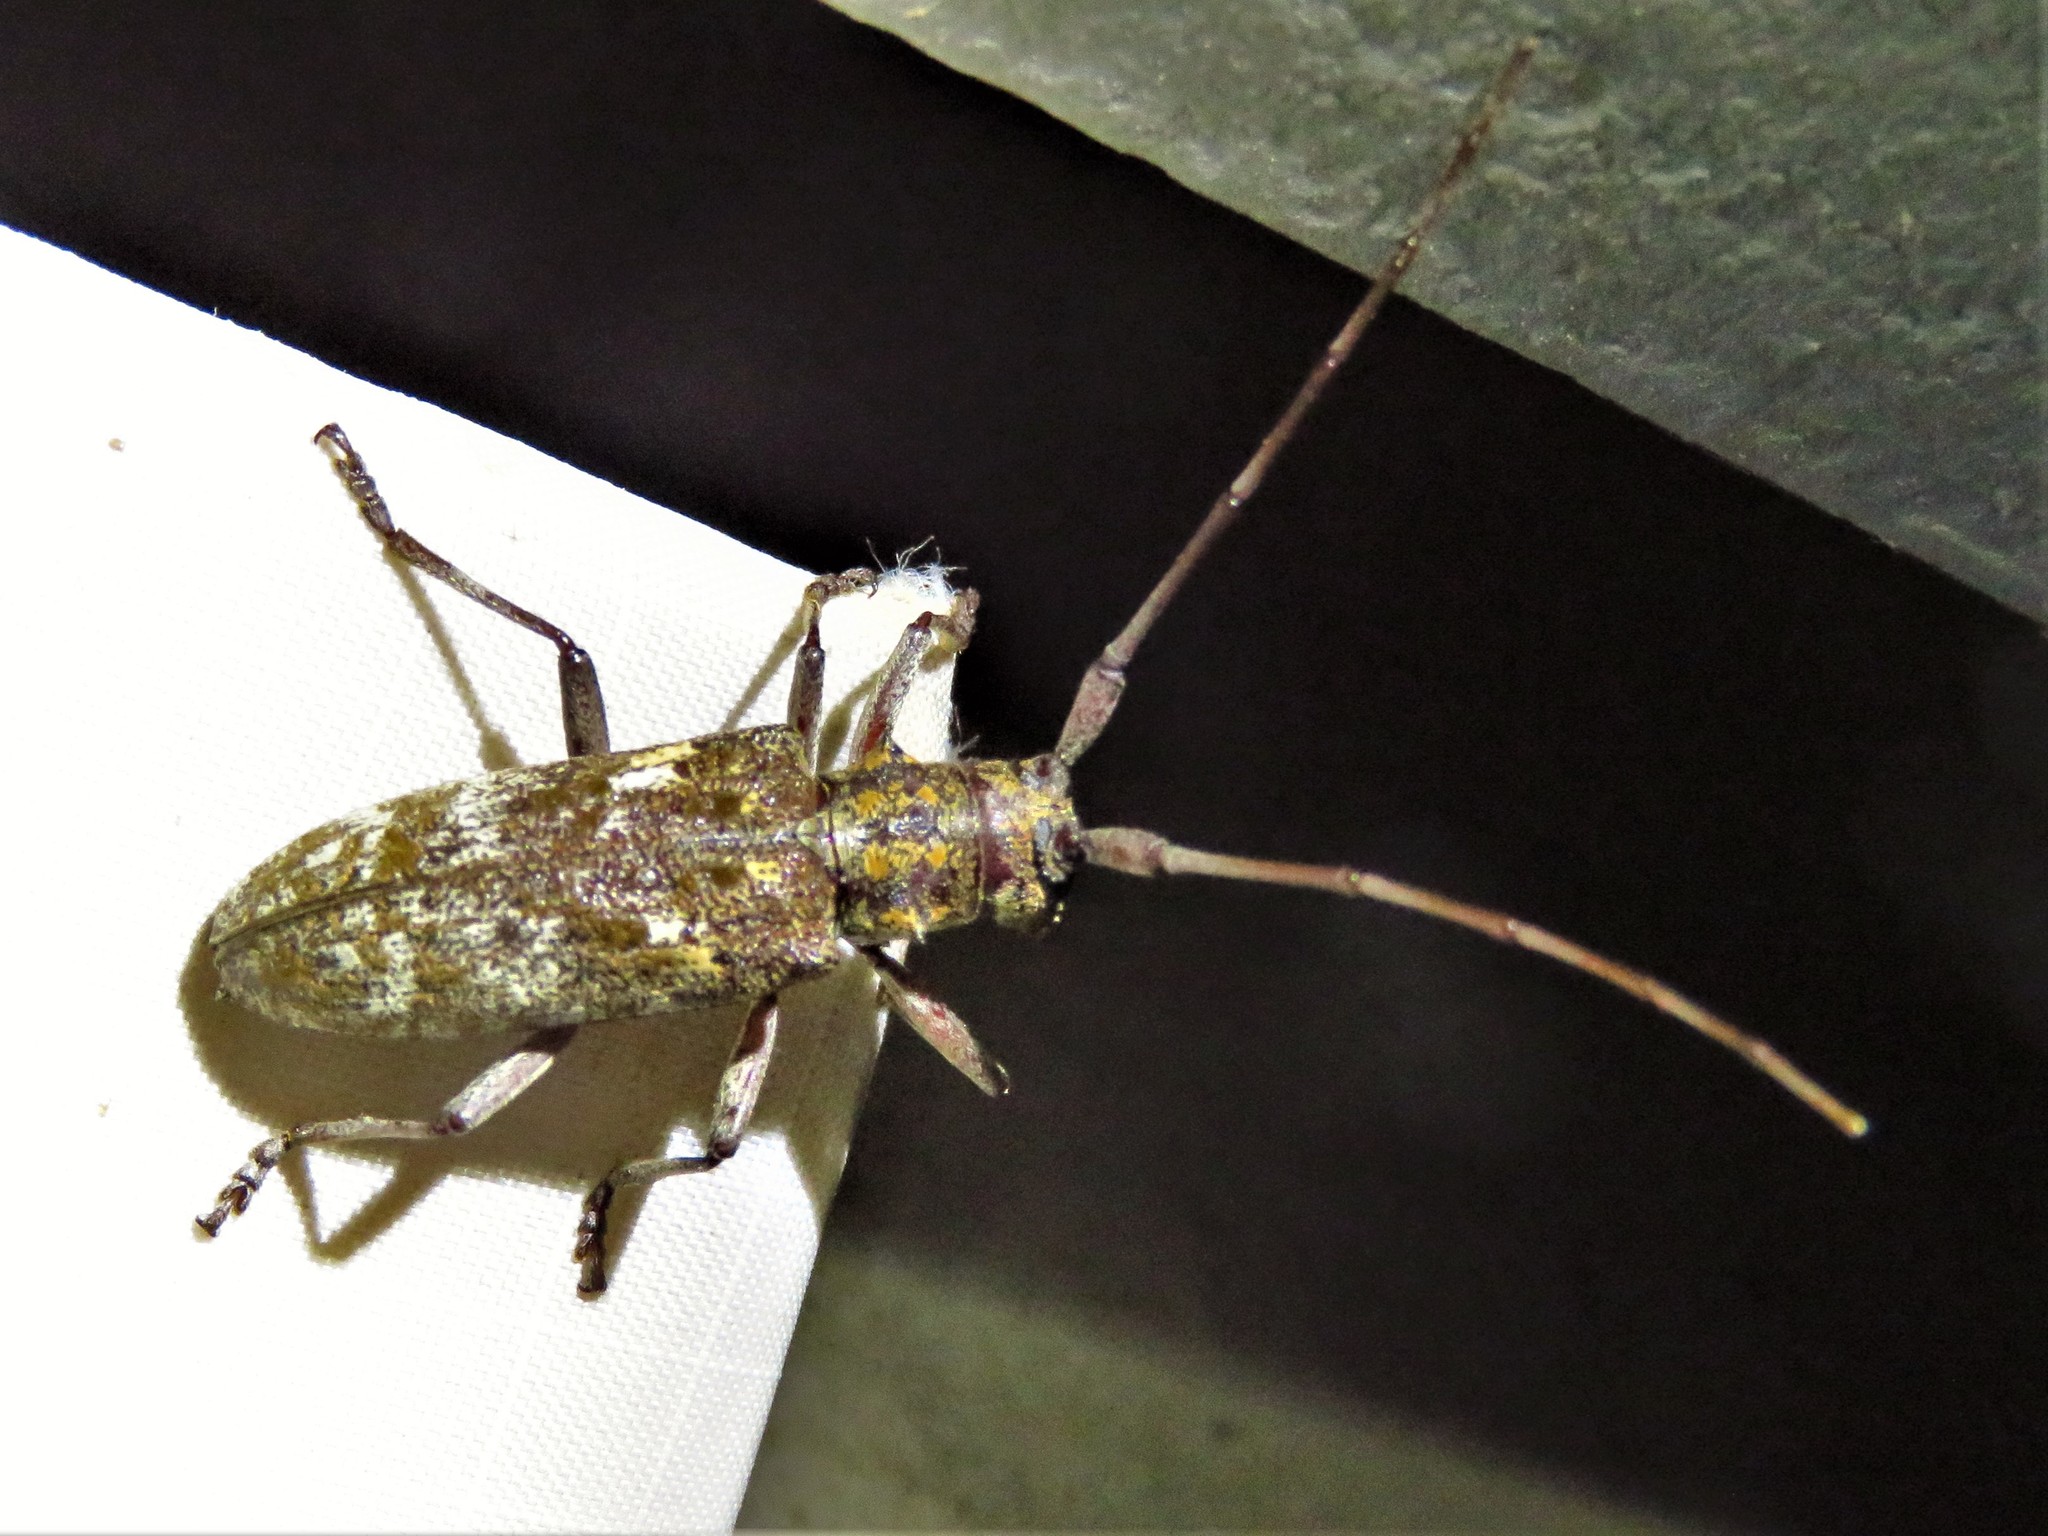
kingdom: Animalia
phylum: Arthropoda
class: Insecta
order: Coleoptera
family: Cerambycidae
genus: Monochamus
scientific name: Monochamus carolinensis
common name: Carolina pine sawyer
